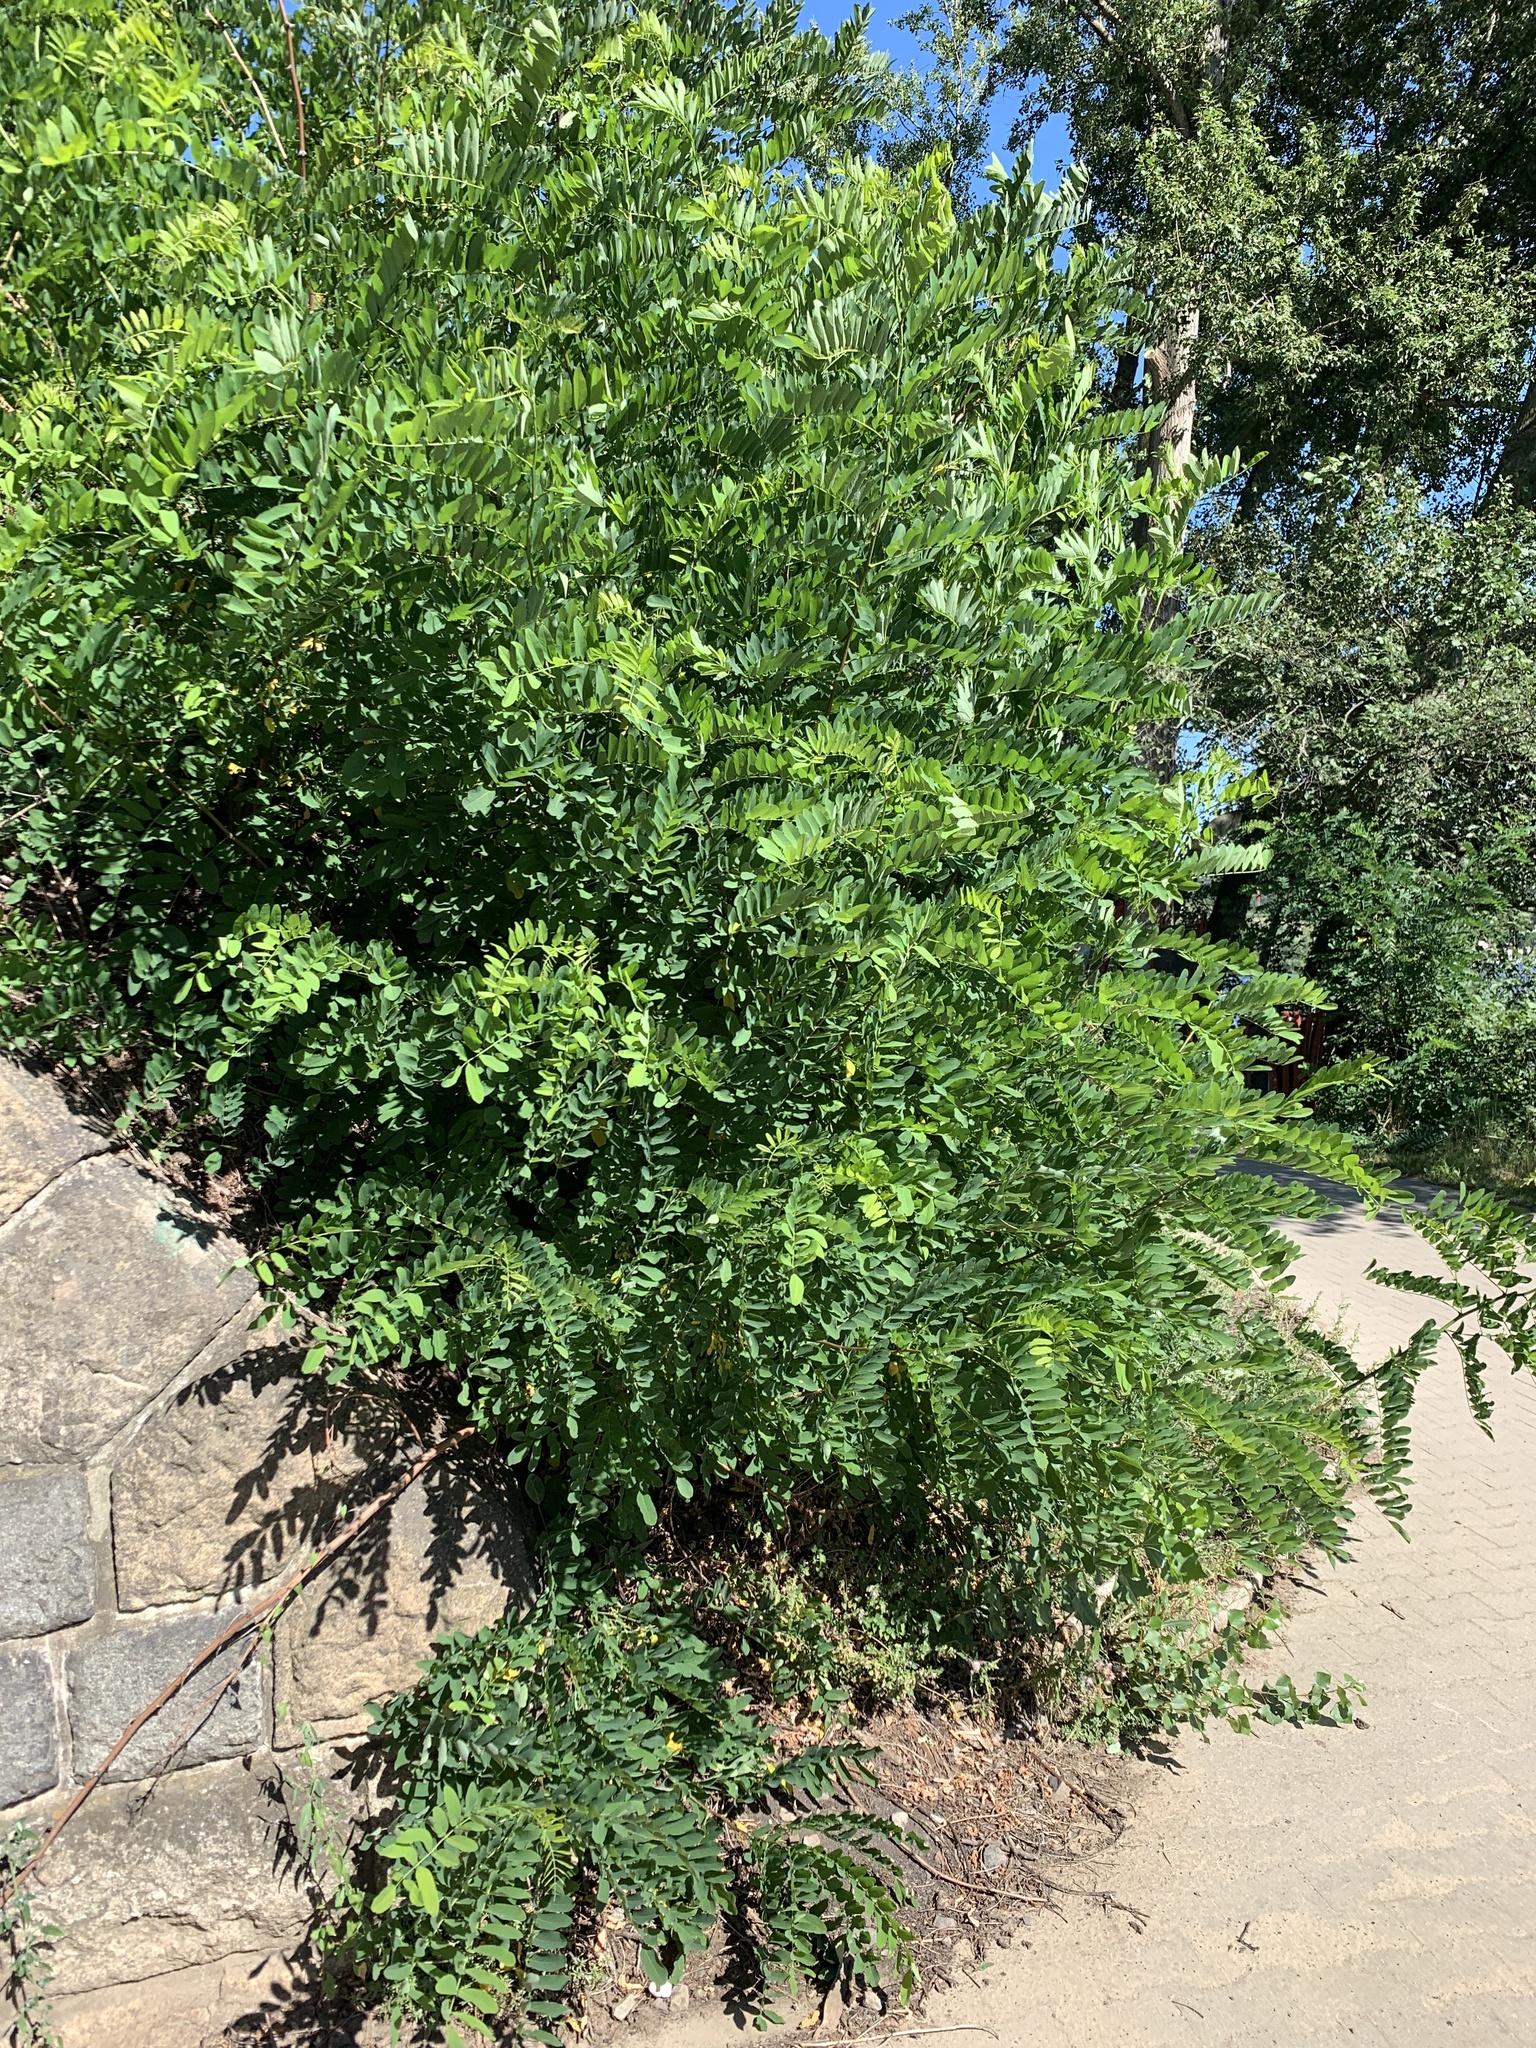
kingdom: Plantae
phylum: Tracheophyta
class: Magnoliopsida
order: Fabales
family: Fabaceae
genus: Robinia
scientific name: Robinia pseudoacacia
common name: Black locust
